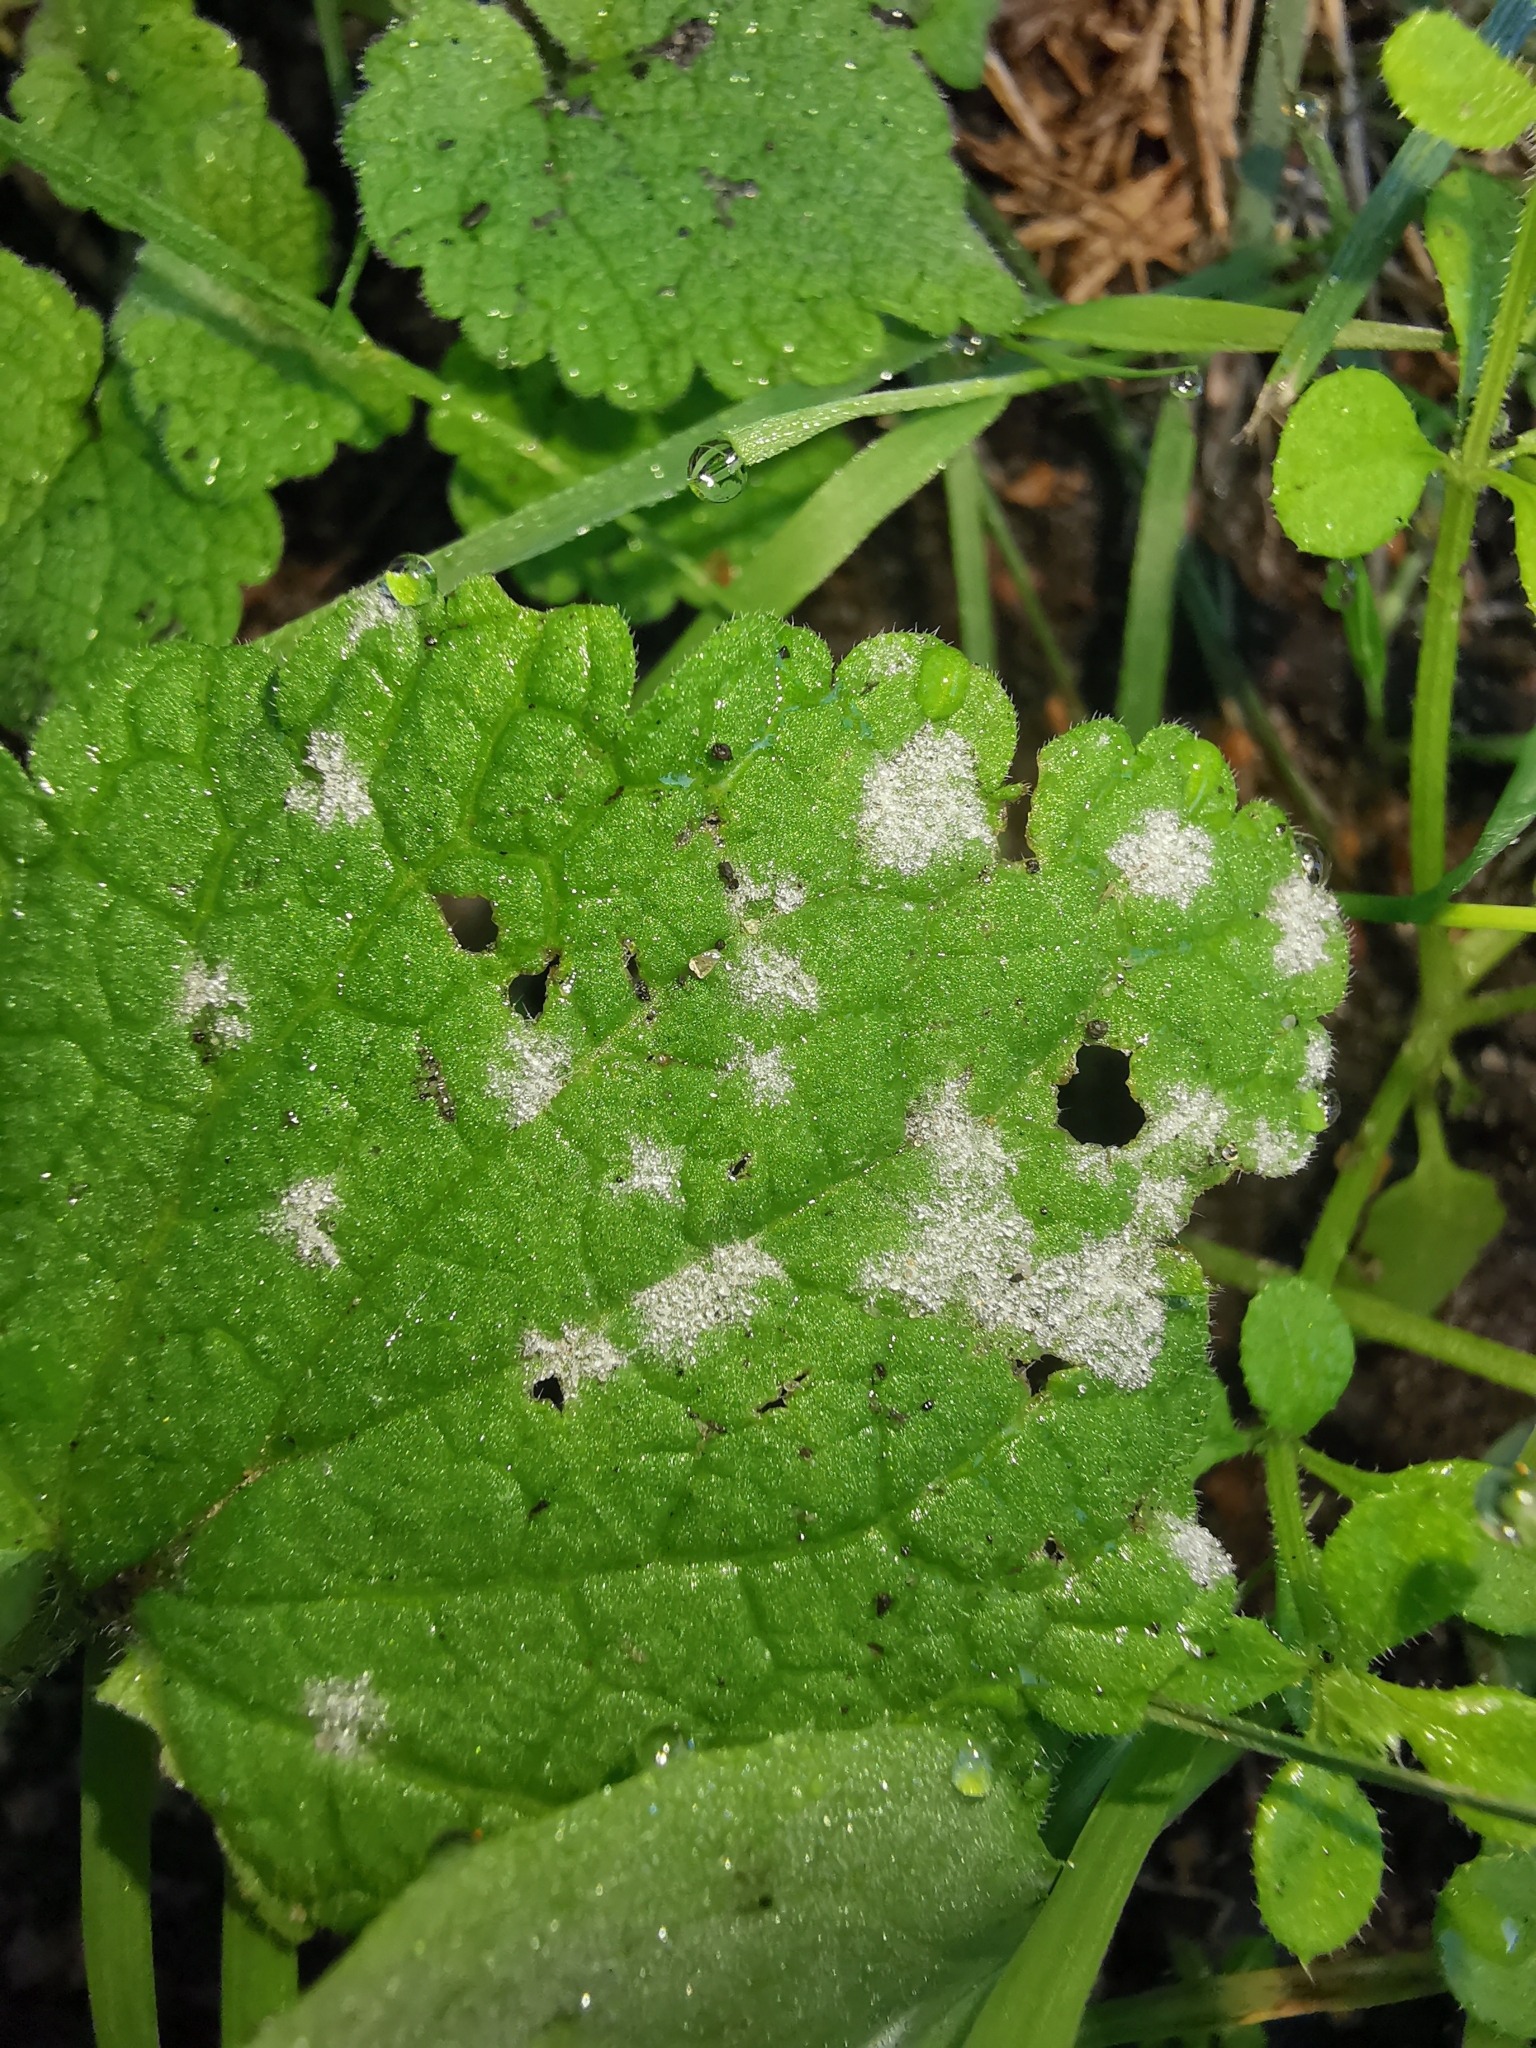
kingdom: Fungi
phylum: Ascomycota
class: Leotiomycetes
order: Helotiales
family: Erysiphaceae
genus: Neoerysiphe
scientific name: Neoerysiphe galeopsidis
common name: Mint mildew
